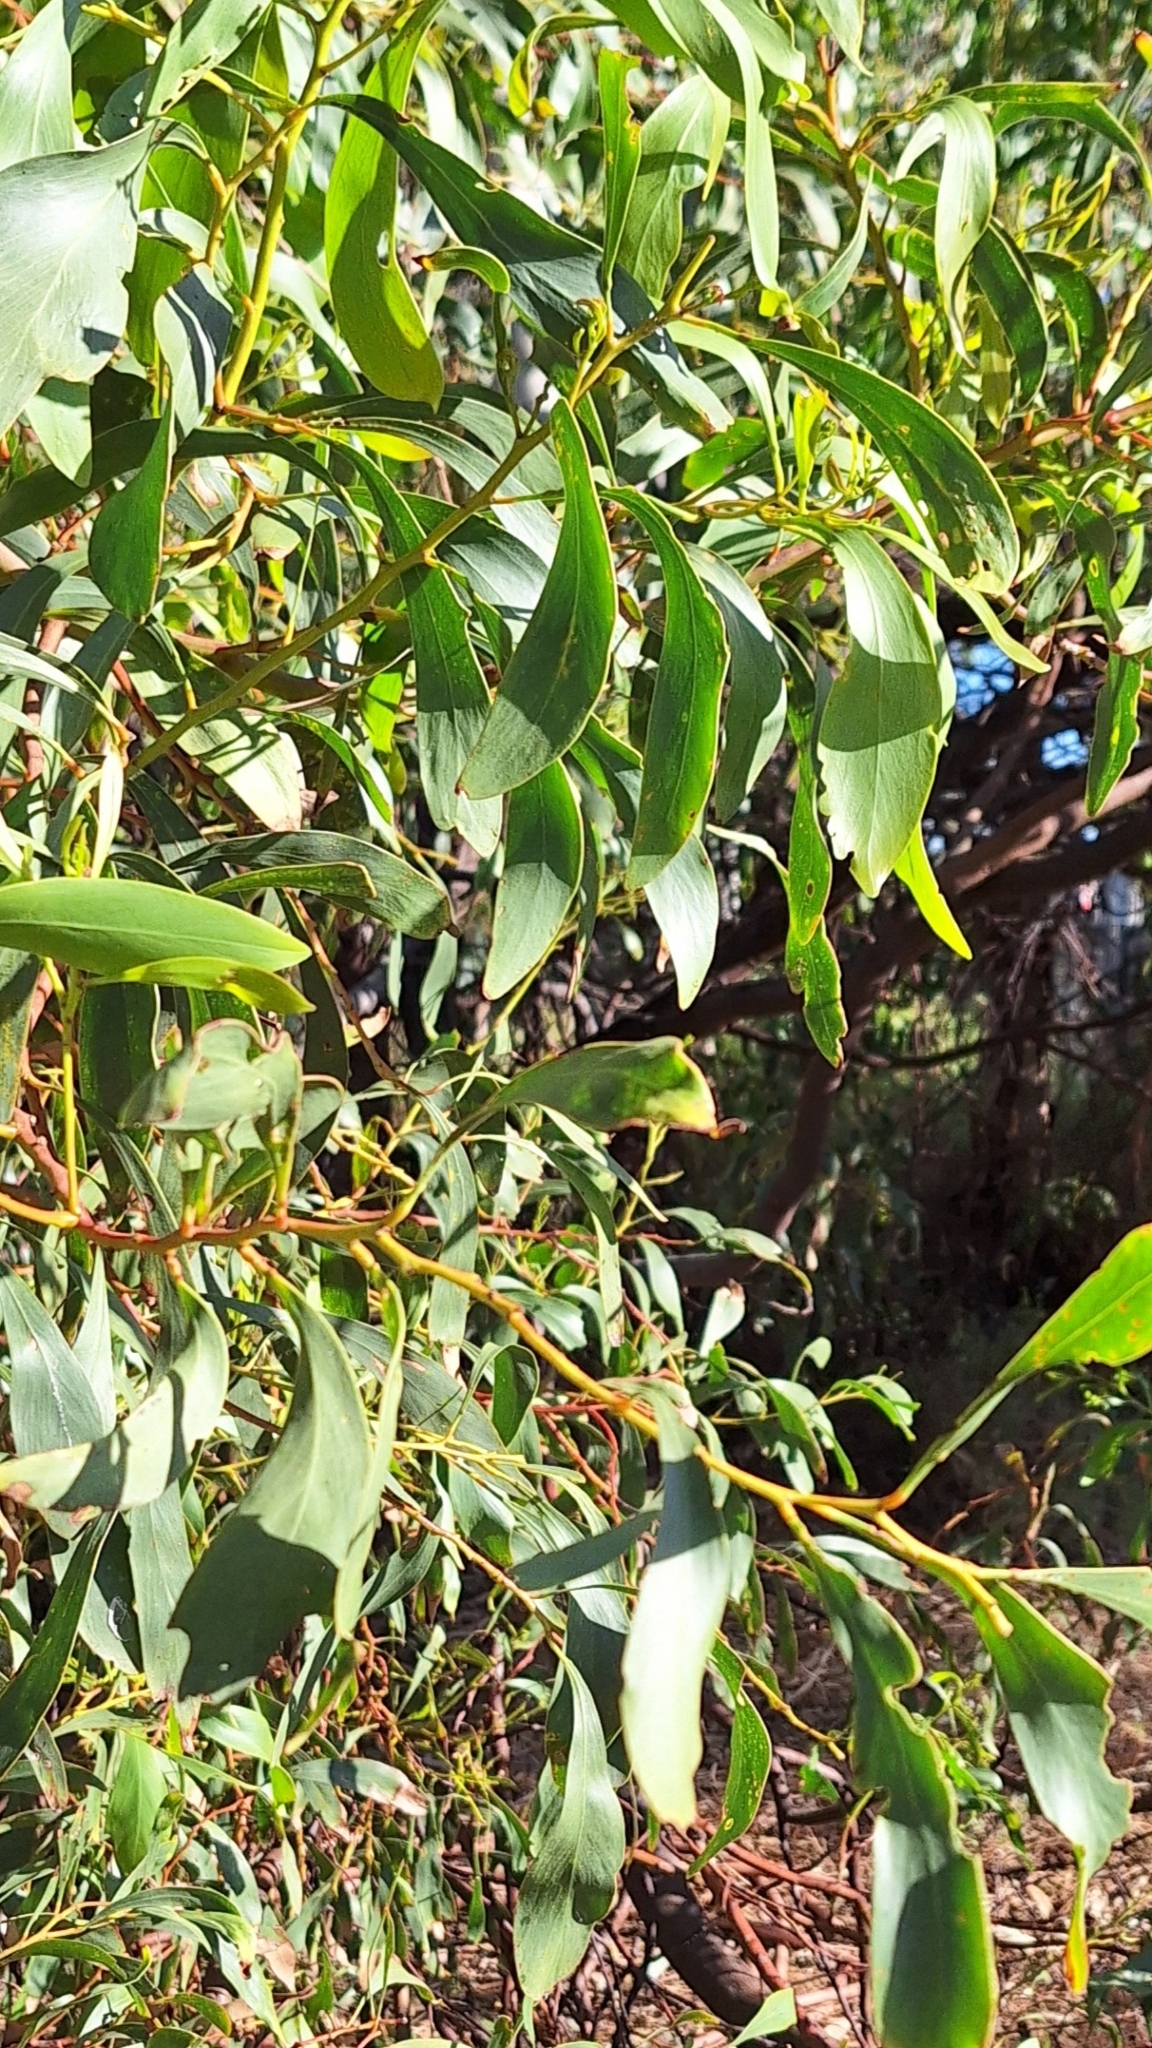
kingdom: Plantae
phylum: Tracheophyta
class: Magnoliopsida
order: Fabales
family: Fabaceae
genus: Acacia
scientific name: Acacia pycnantha
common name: Golden wattle
